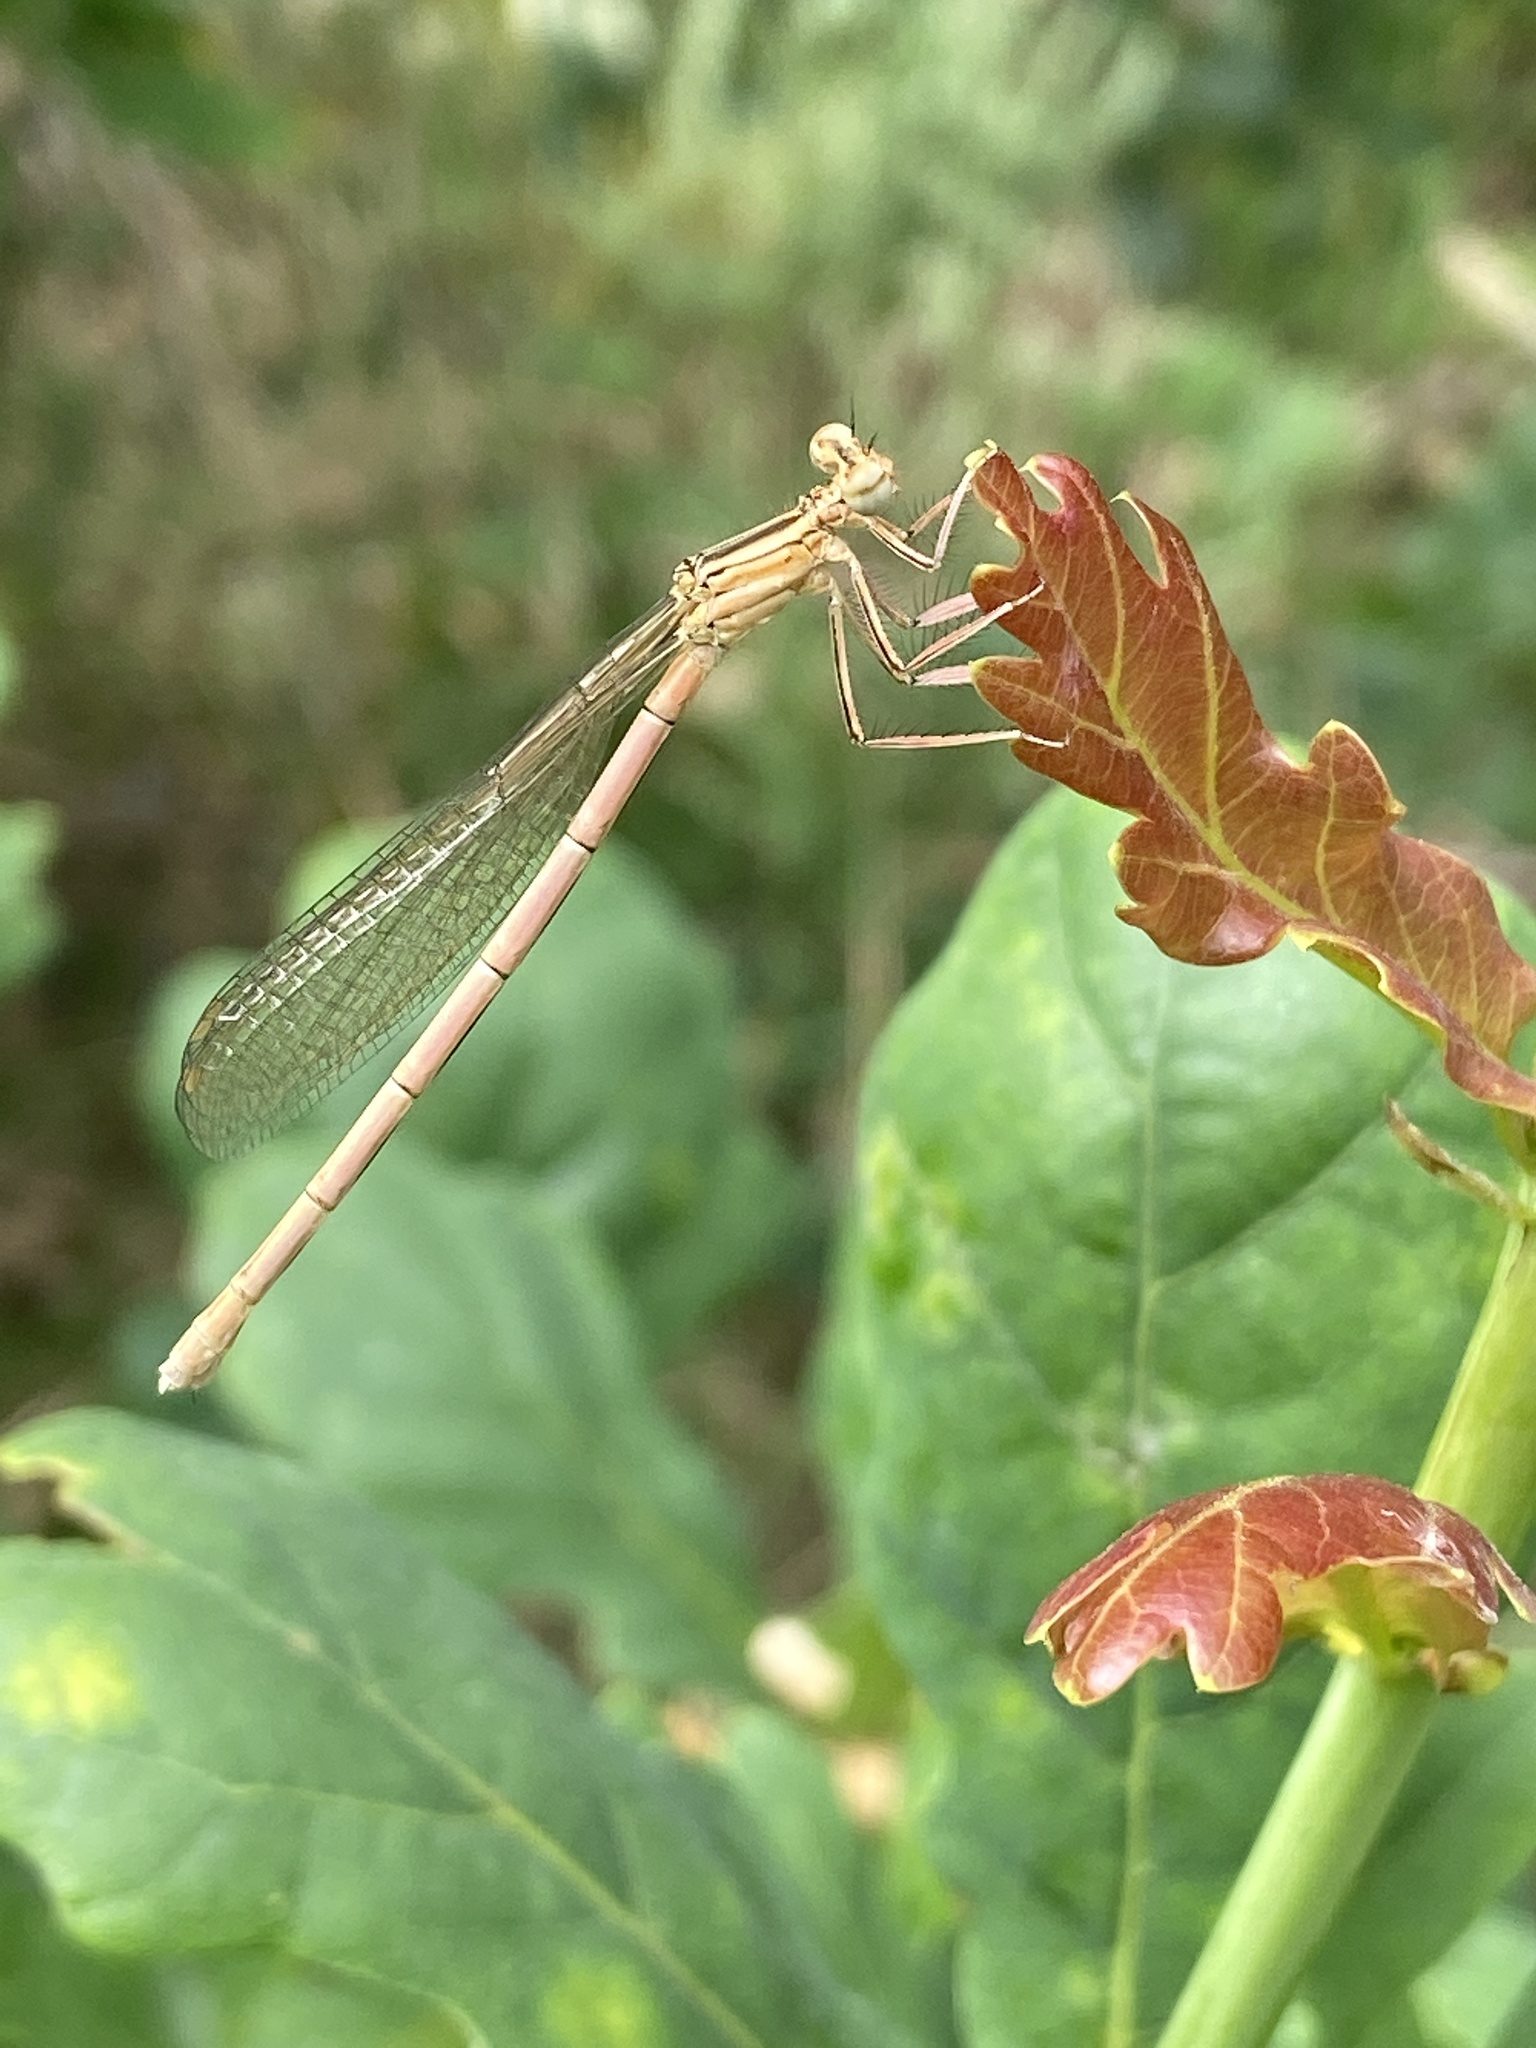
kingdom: Animalia
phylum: Arthropoda
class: Insecta
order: Odonata
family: Platycnemididae
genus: Platycnemis
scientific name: Platycnemis pennipes
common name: White-legged damselfly
